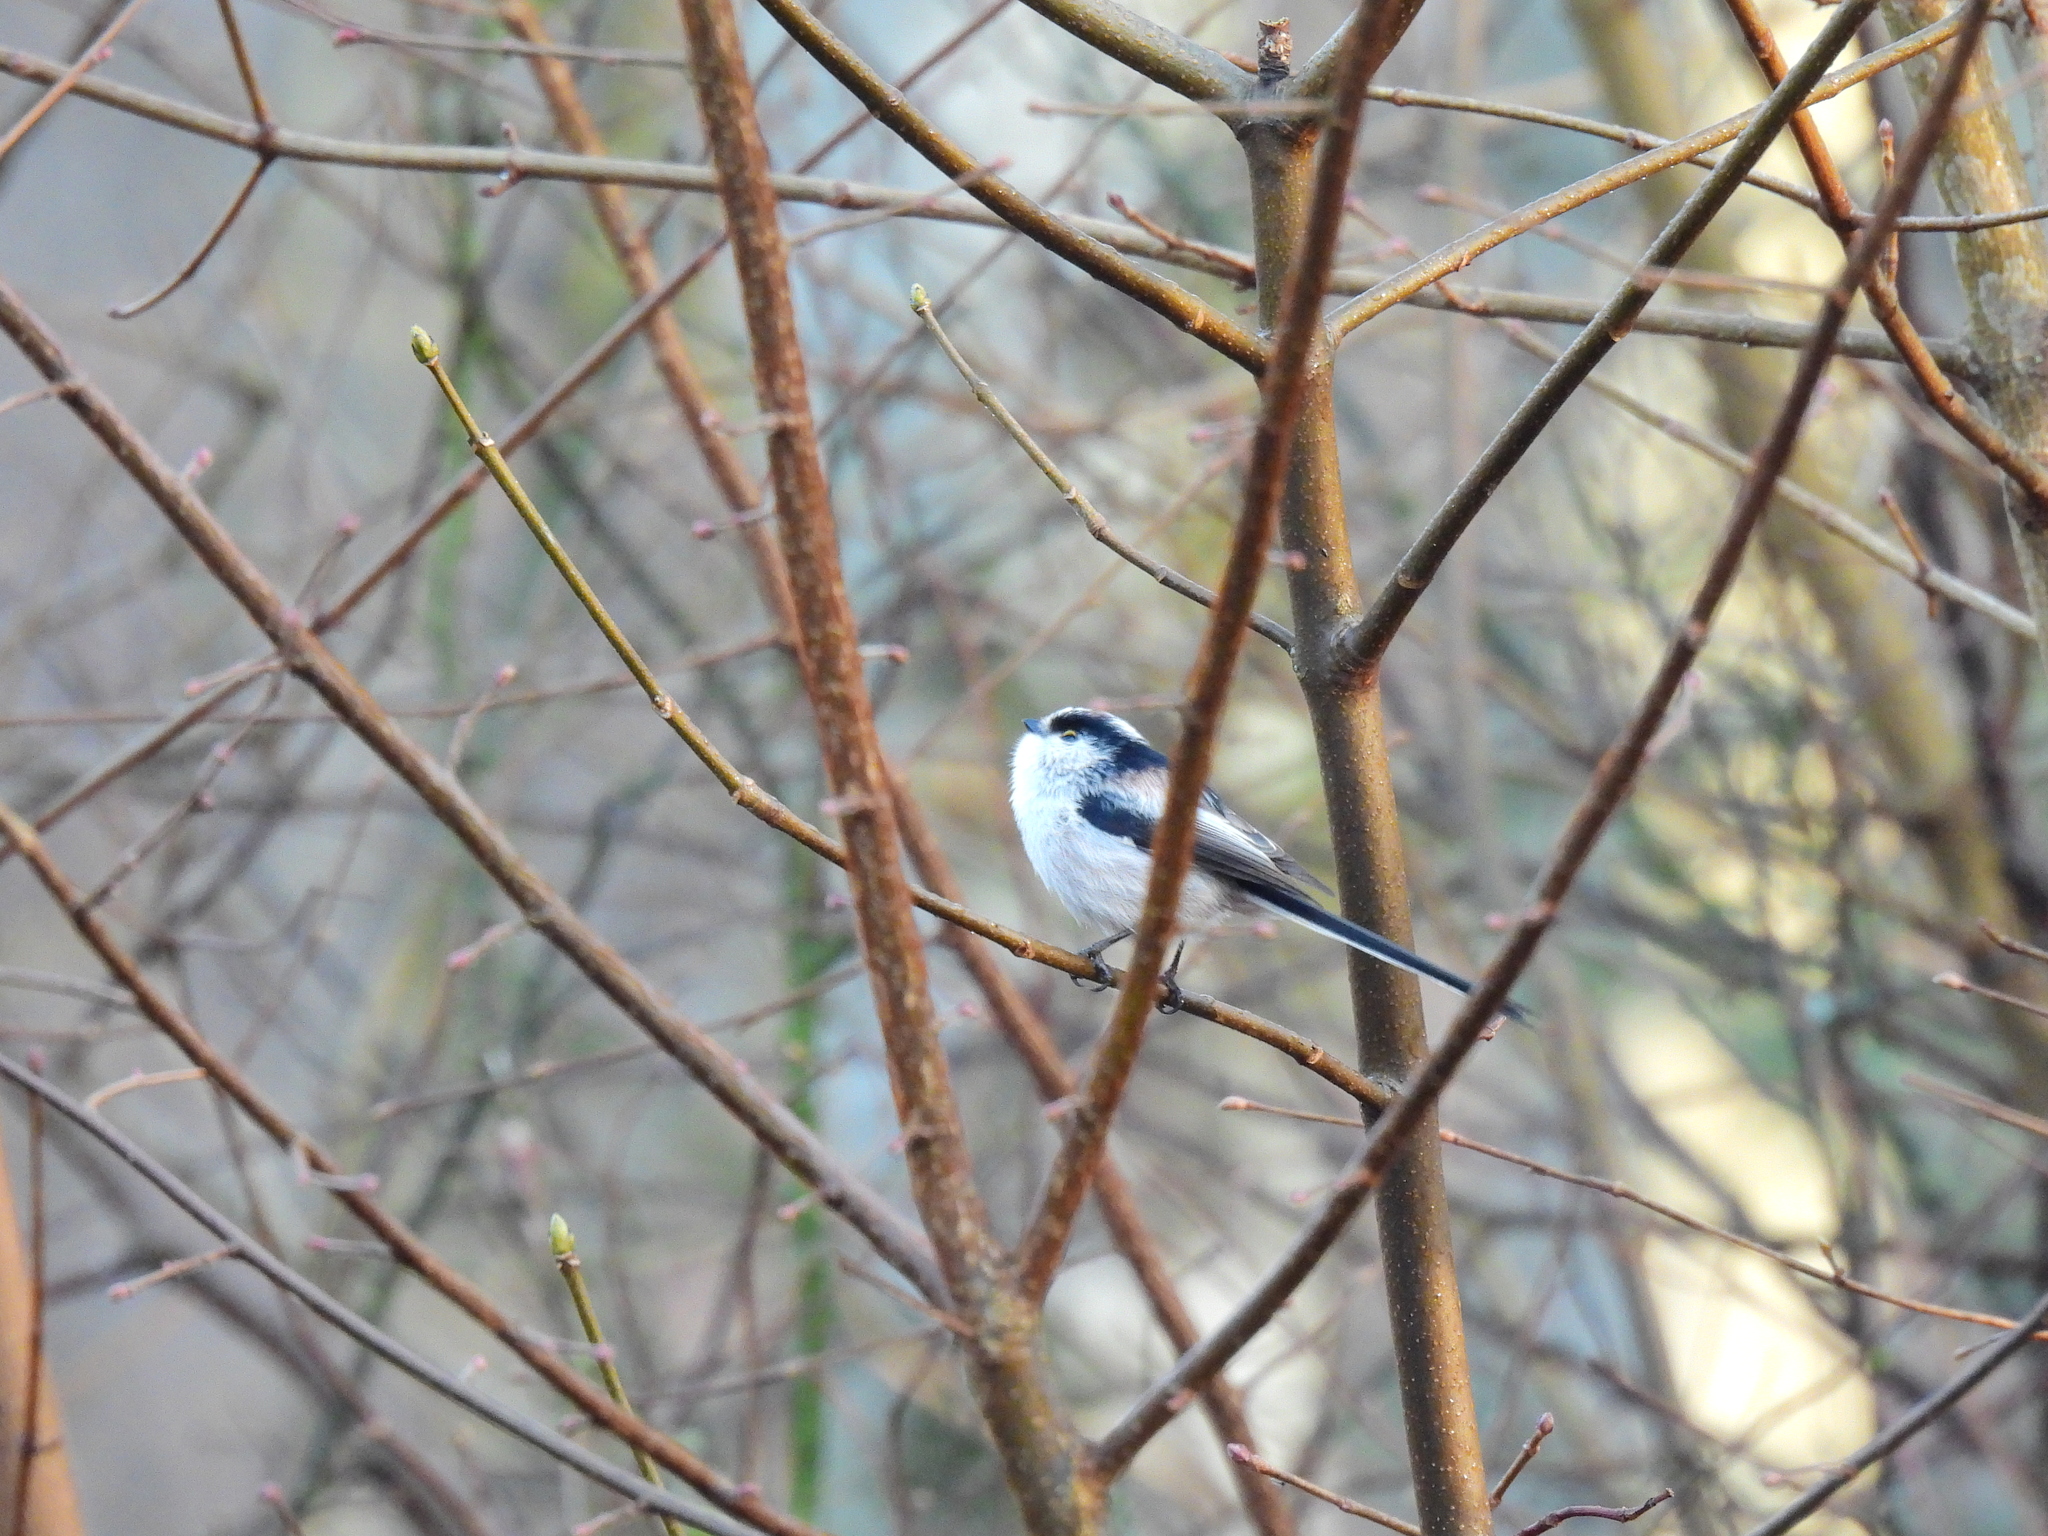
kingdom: Animalia
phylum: Chordata
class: Aves
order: Passeriformes
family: Aegithalidae
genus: Aegithalos
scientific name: Aegithalos caudatus
